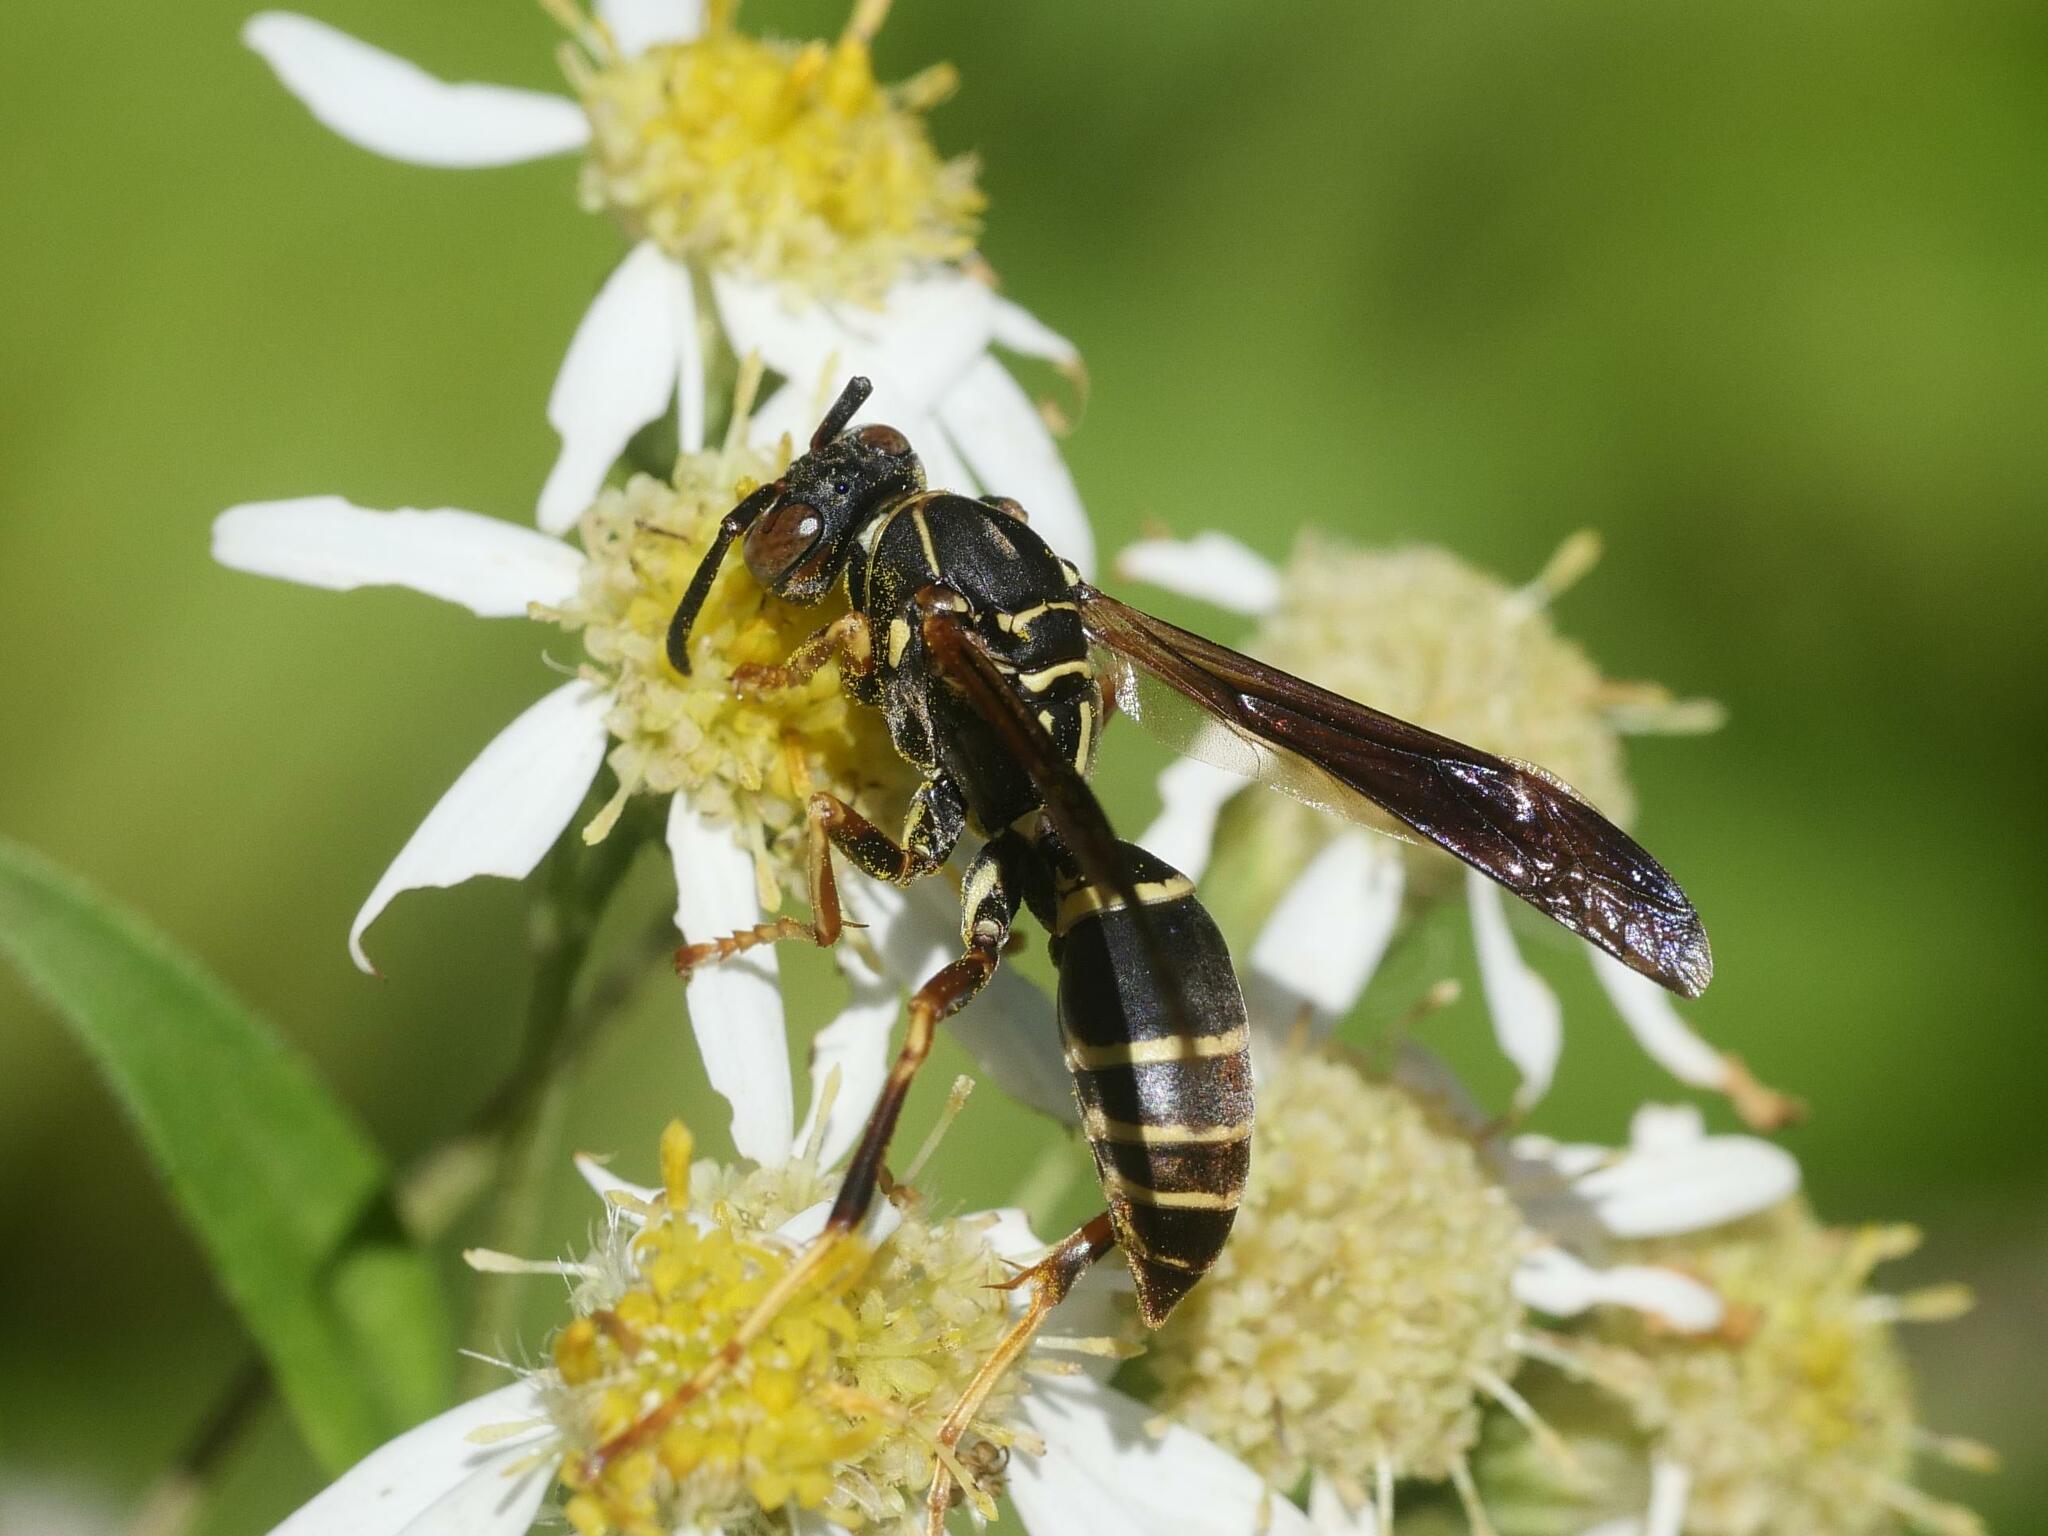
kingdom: Animalia
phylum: Arthropoda
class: Insecta
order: Hymenoptera
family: Eumenidae
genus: Polistes
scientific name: Polistes fuscatus
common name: Dark paper wasp
